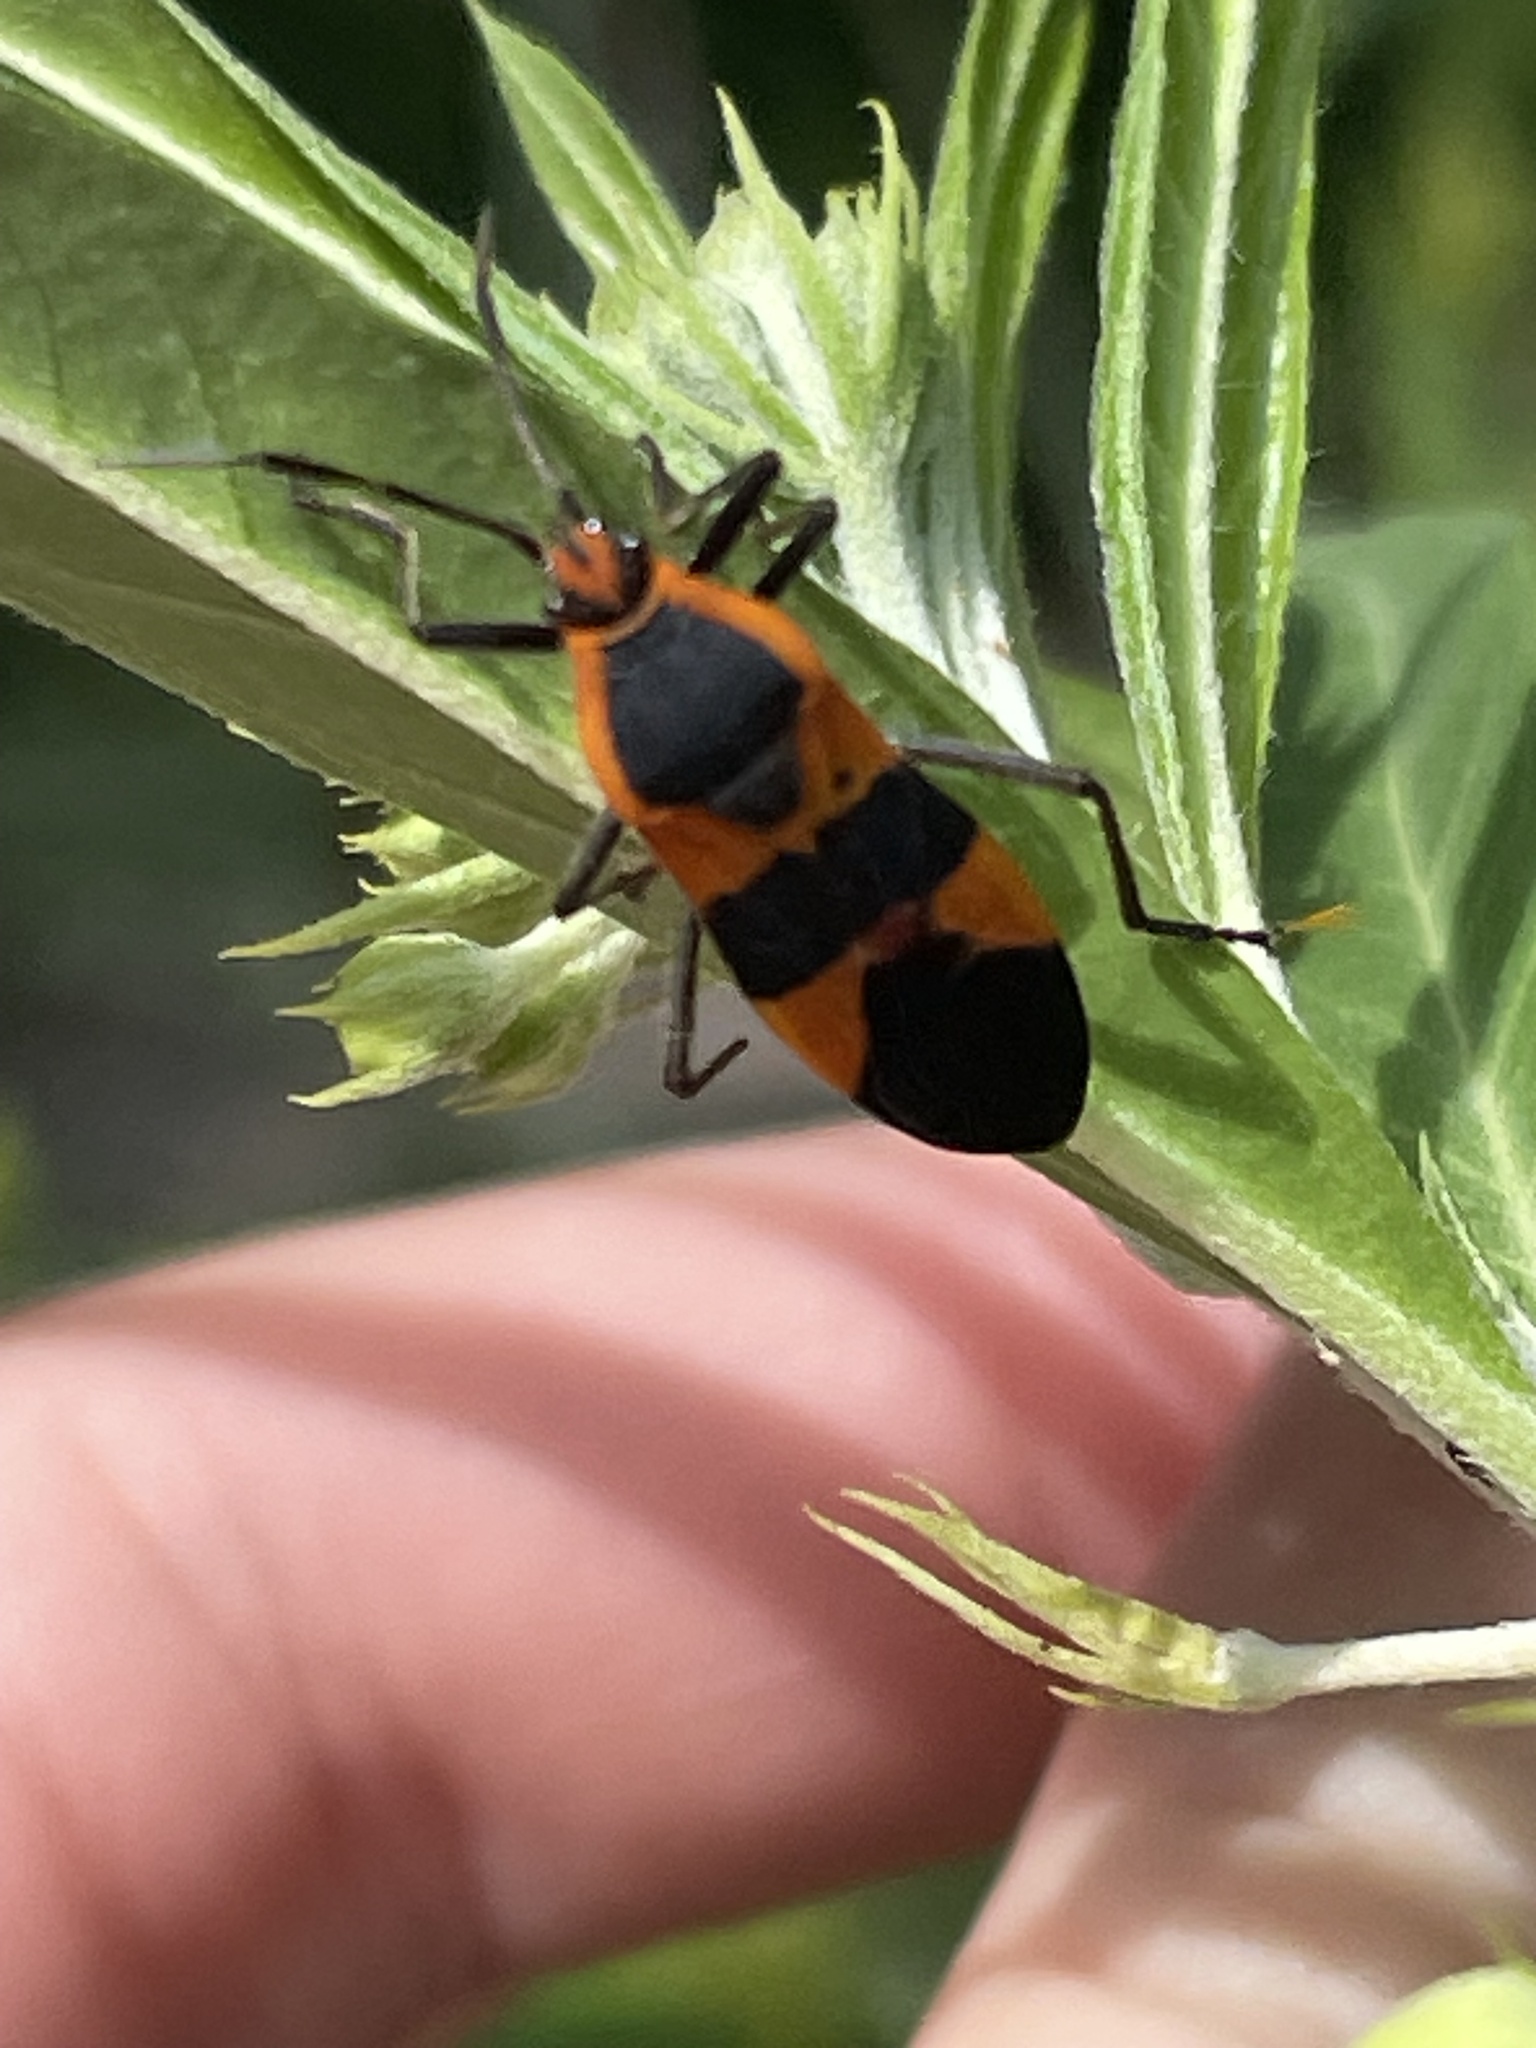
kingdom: Animalia
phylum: Arthropoda
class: Insecta
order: Hemiptera
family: Lygaeidae
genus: Oncopeltus
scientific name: Oncopeltus fasciatus
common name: Large milkweed bug
